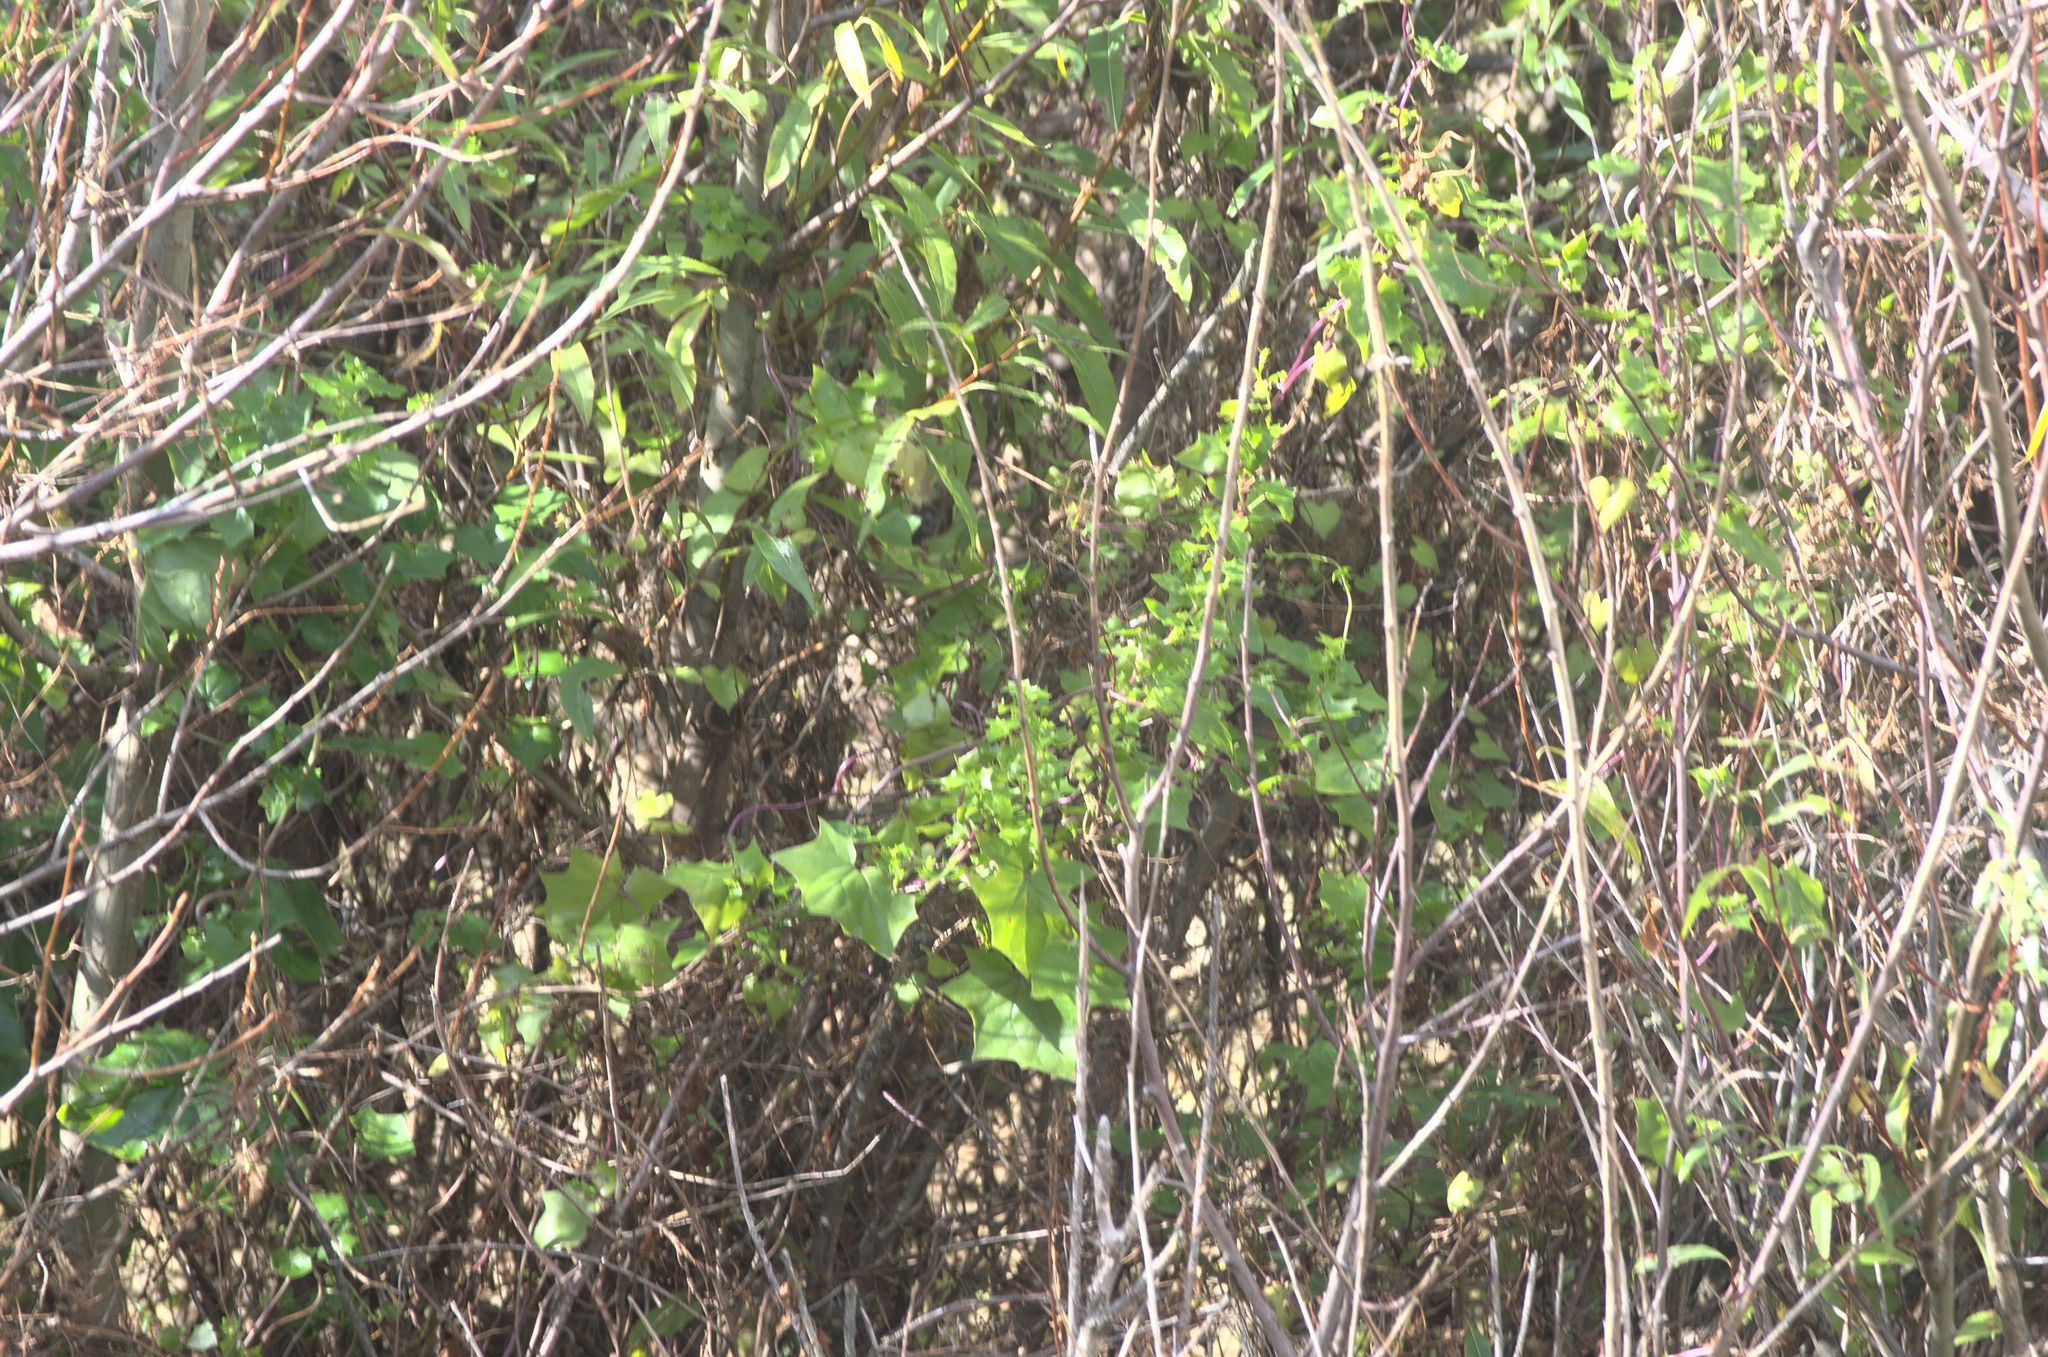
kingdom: Plantae
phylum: Tracheophyta
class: Magnoliopsida
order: Asterales
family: Asteraceae
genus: Delairea
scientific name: Delairea odorata
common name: Cape-ivy
